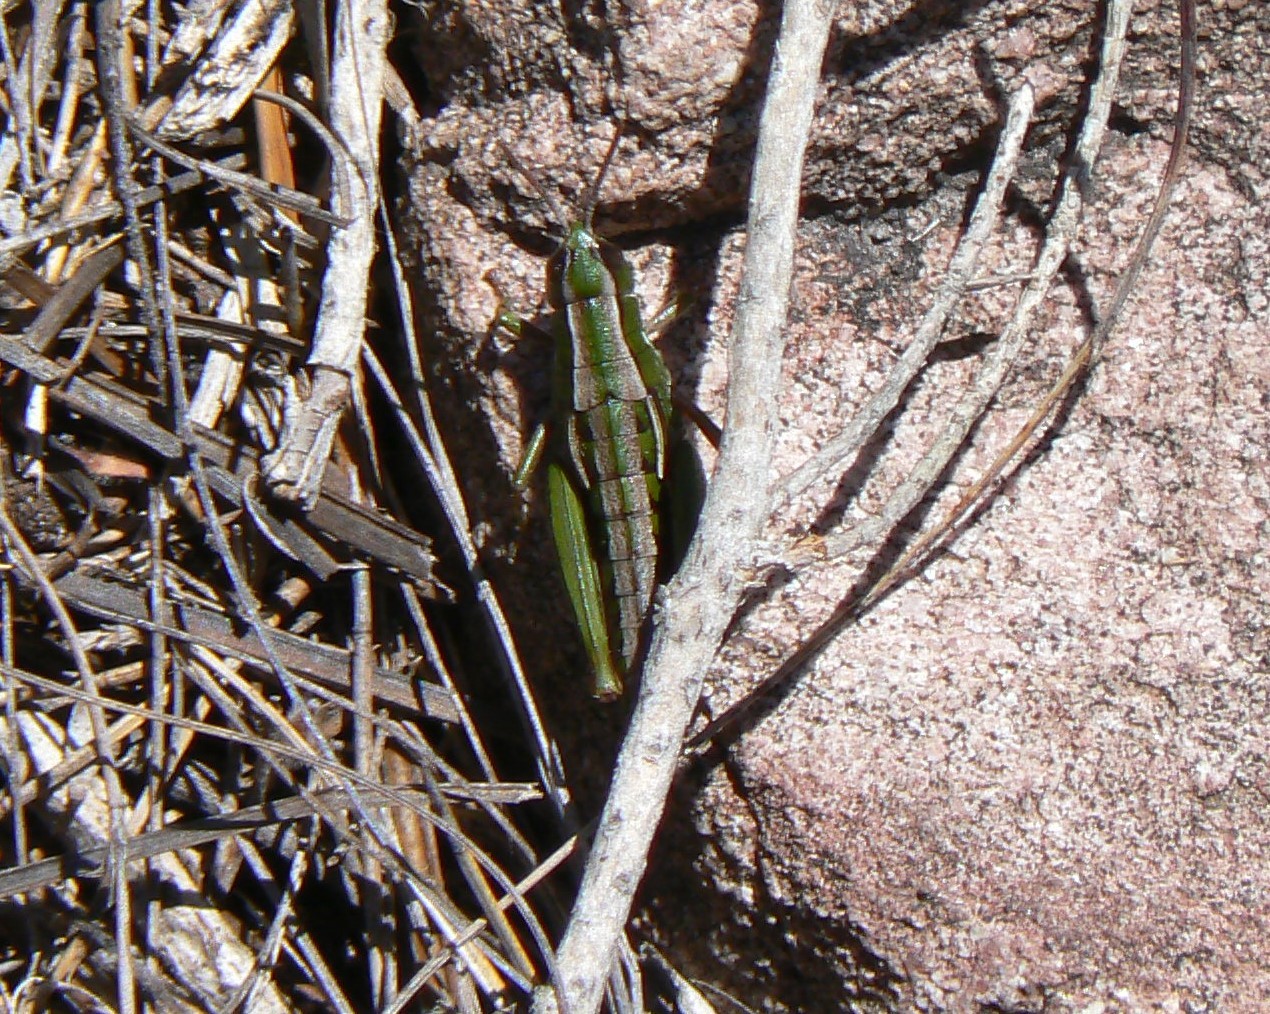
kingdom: Animalia
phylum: Arthropoda
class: Insecta
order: Orthoptera
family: Acrididae
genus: Russalpia
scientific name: Russalpia albertisi
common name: Tassie hopper
